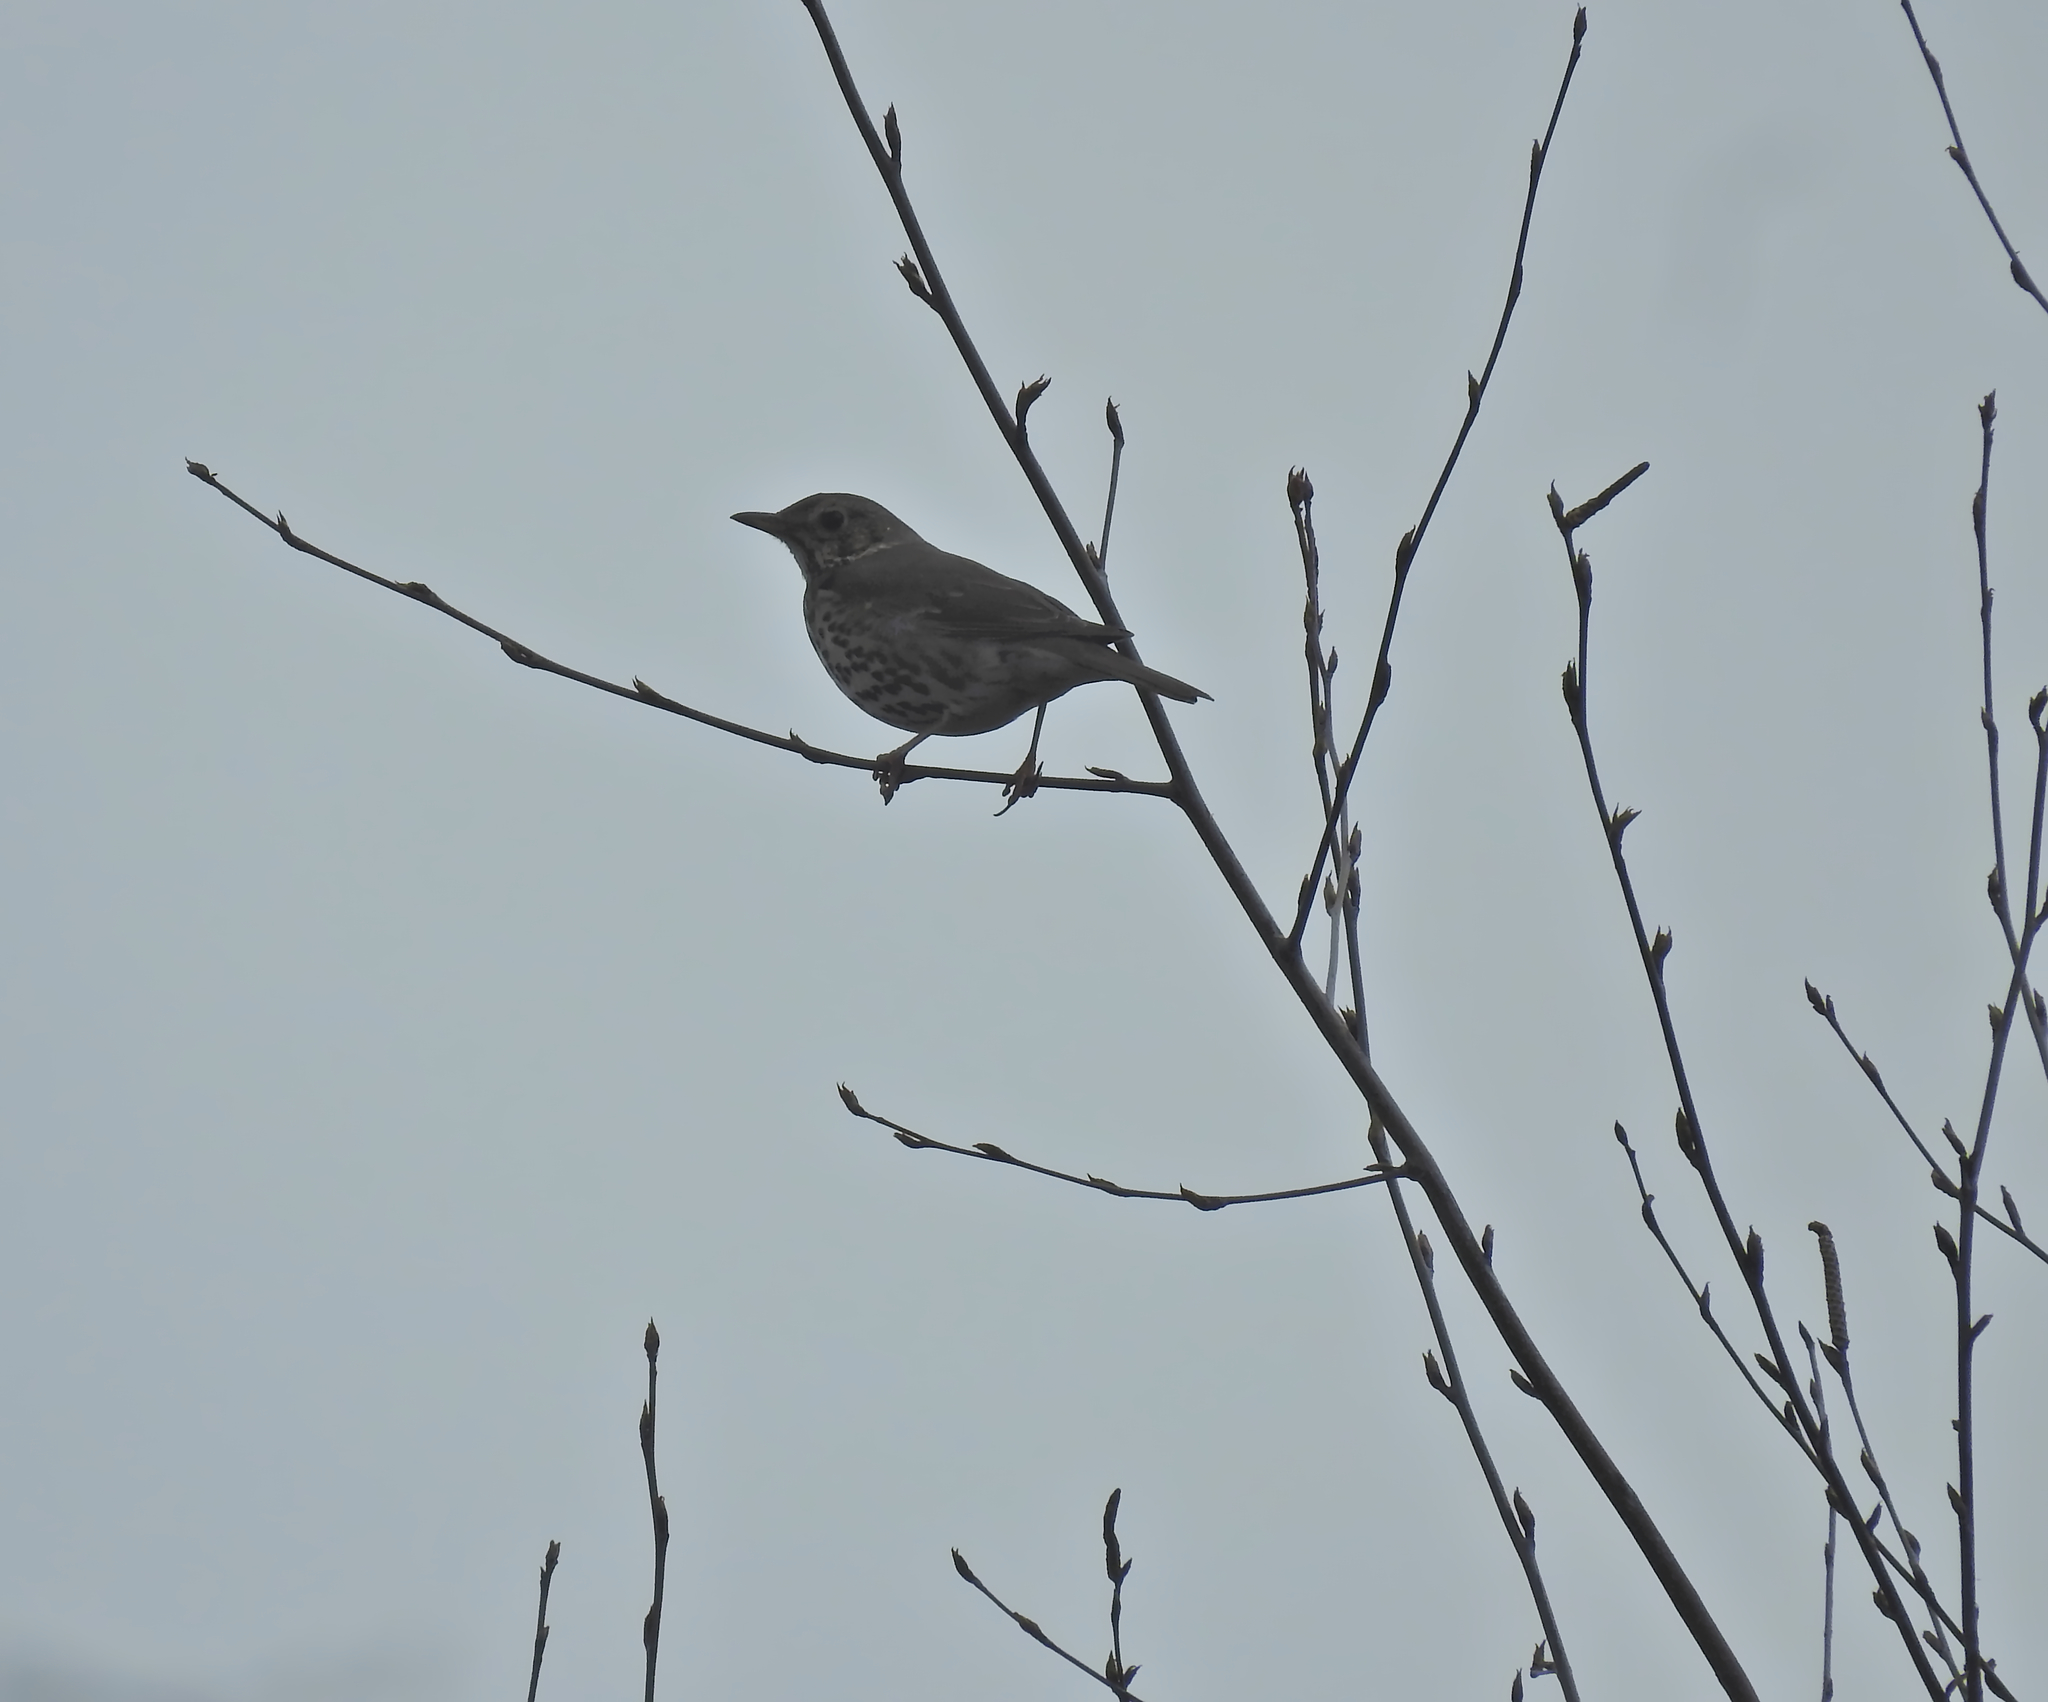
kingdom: Animalia
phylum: Chordata
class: Aves
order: Passeriformes
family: Turdidae
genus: Turdus
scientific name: Turdus philomelos
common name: Song thrush
